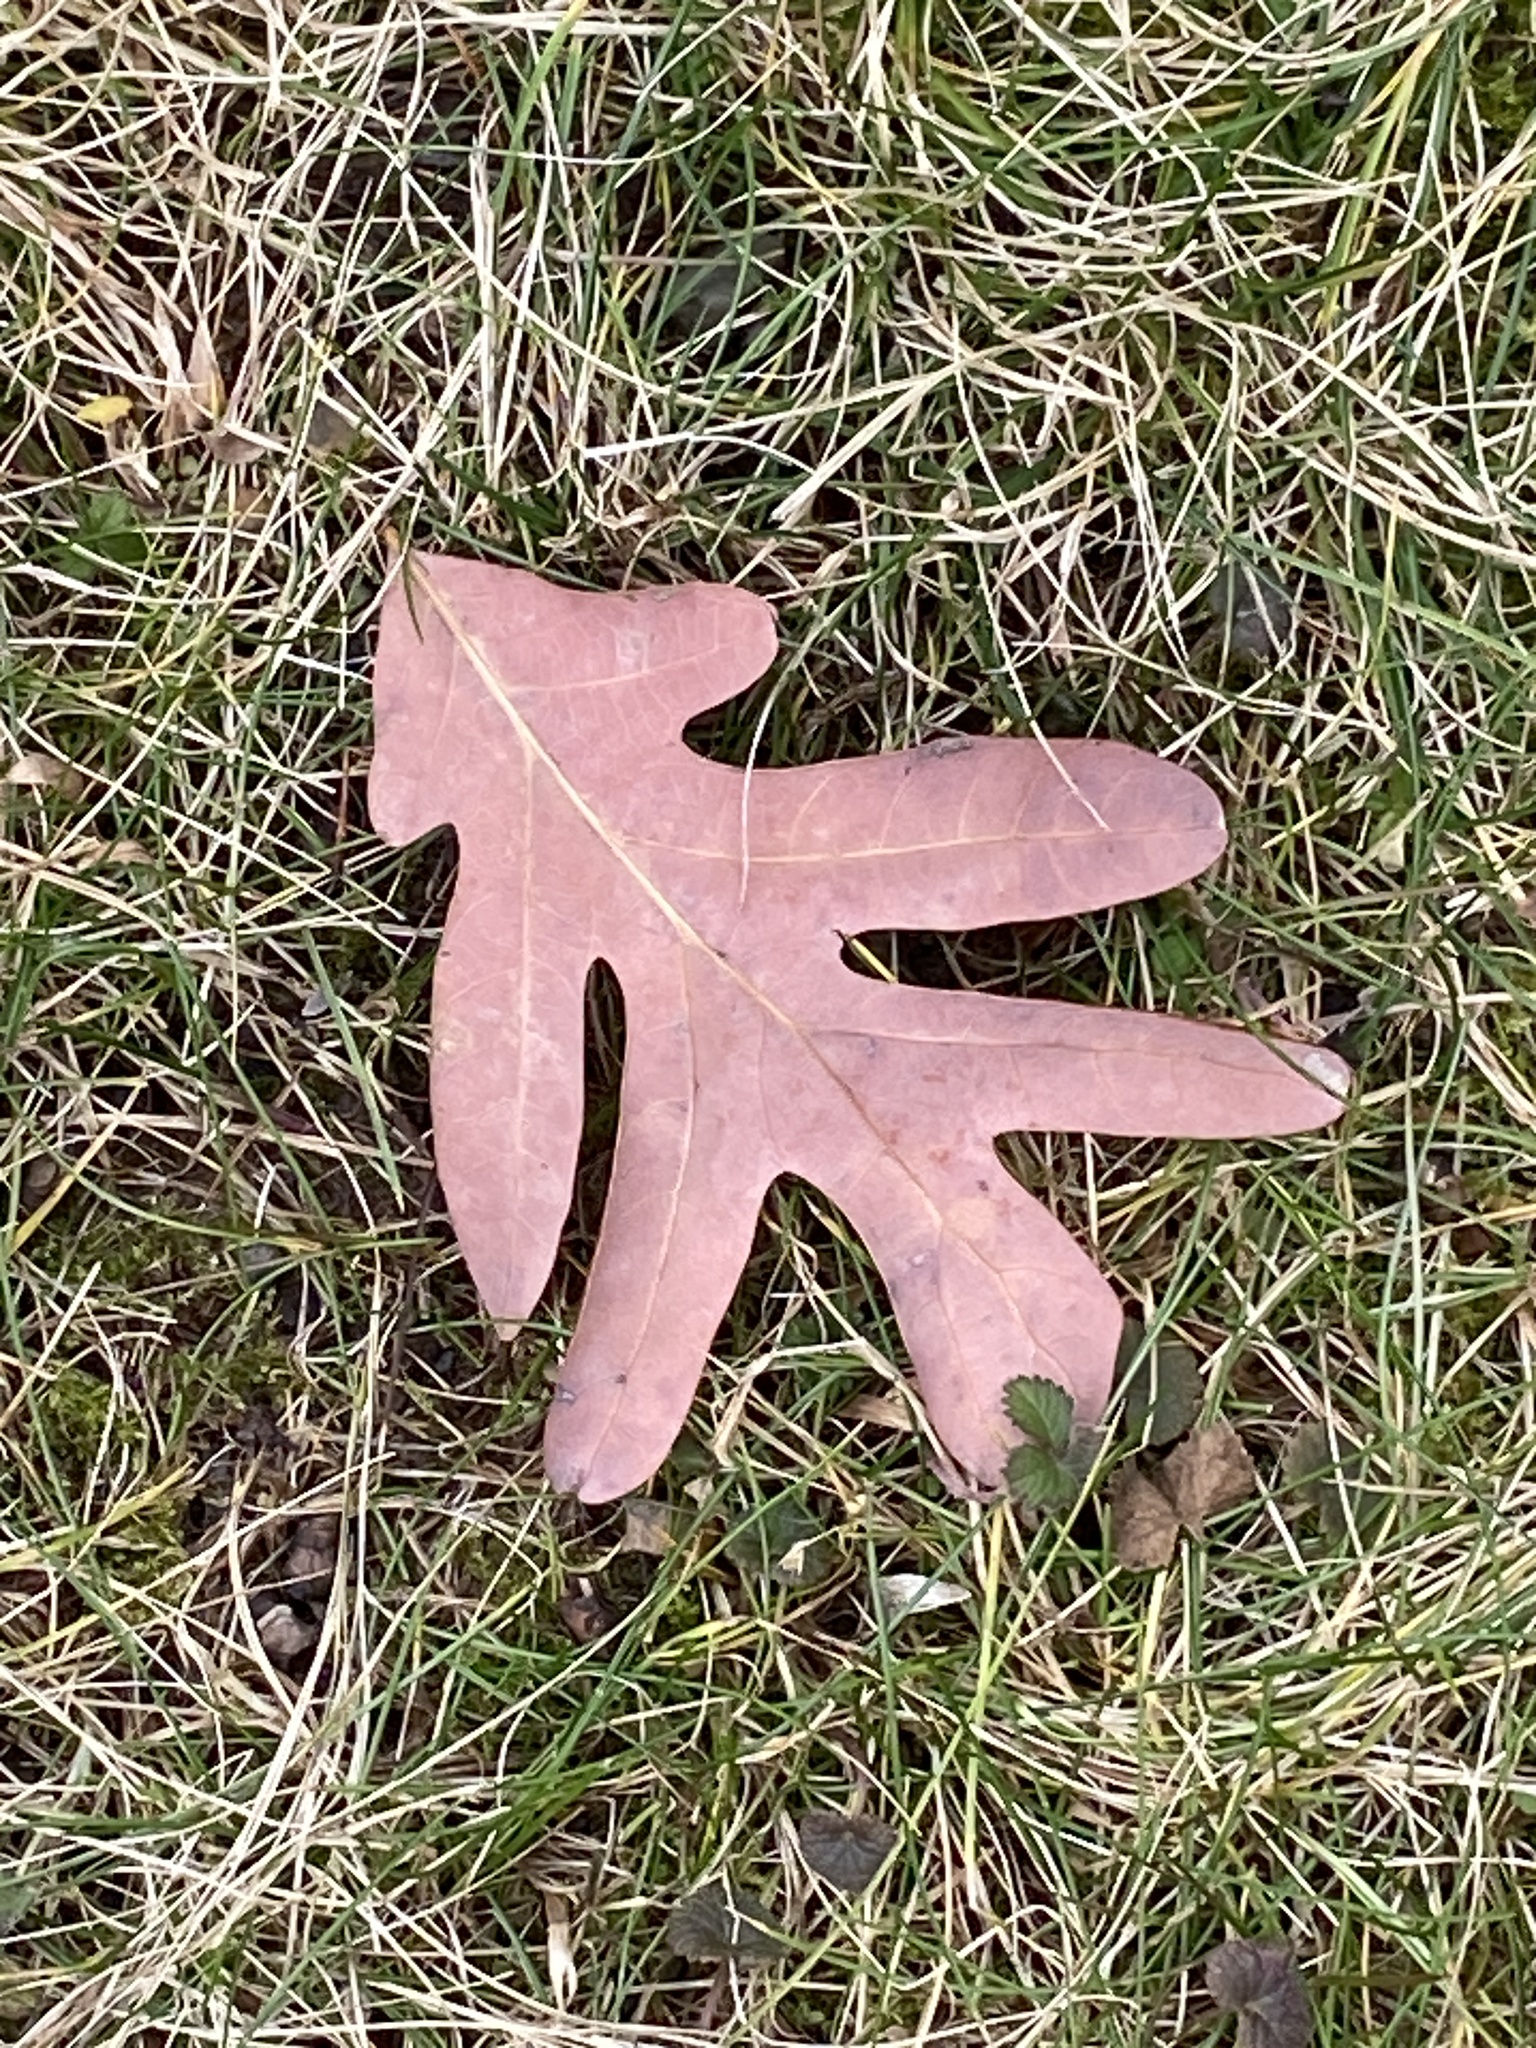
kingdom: Plantae
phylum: Tracheophyta
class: Magnoliopsida
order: Fagales
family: Fagaceae
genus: Quercus
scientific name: Quercus alba
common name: White oak
